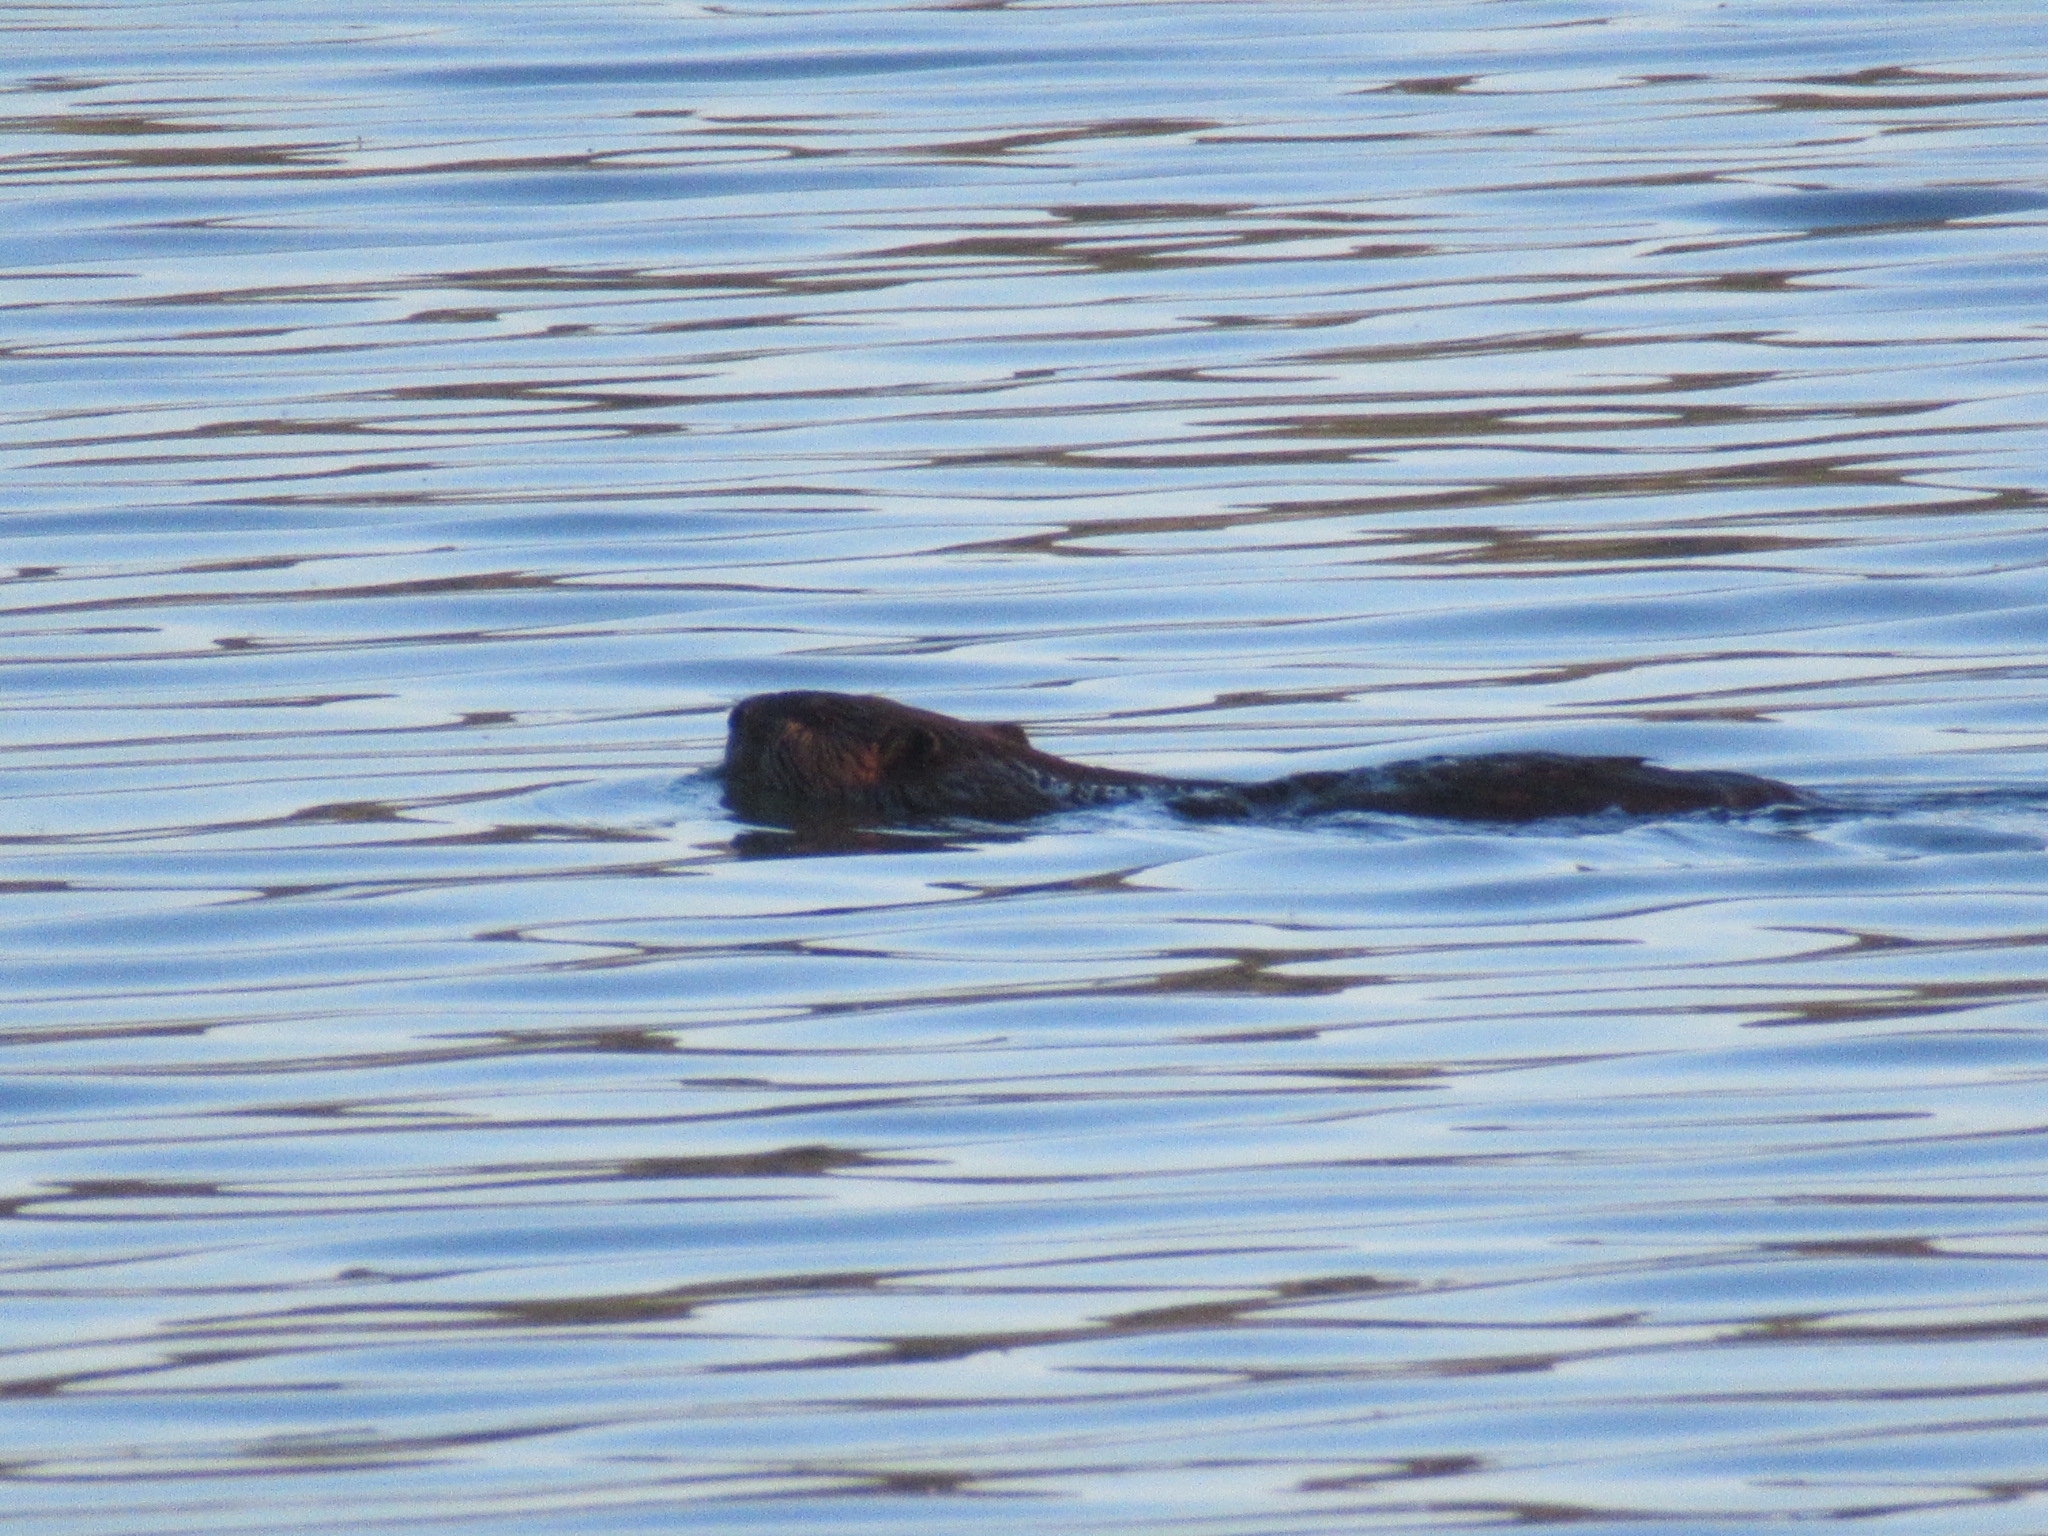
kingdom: Animalia
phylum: Chordata
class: Mammalia
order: Rodentia
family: Castoridae
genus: Castor
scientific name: Castor canadensis
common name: American beaver
